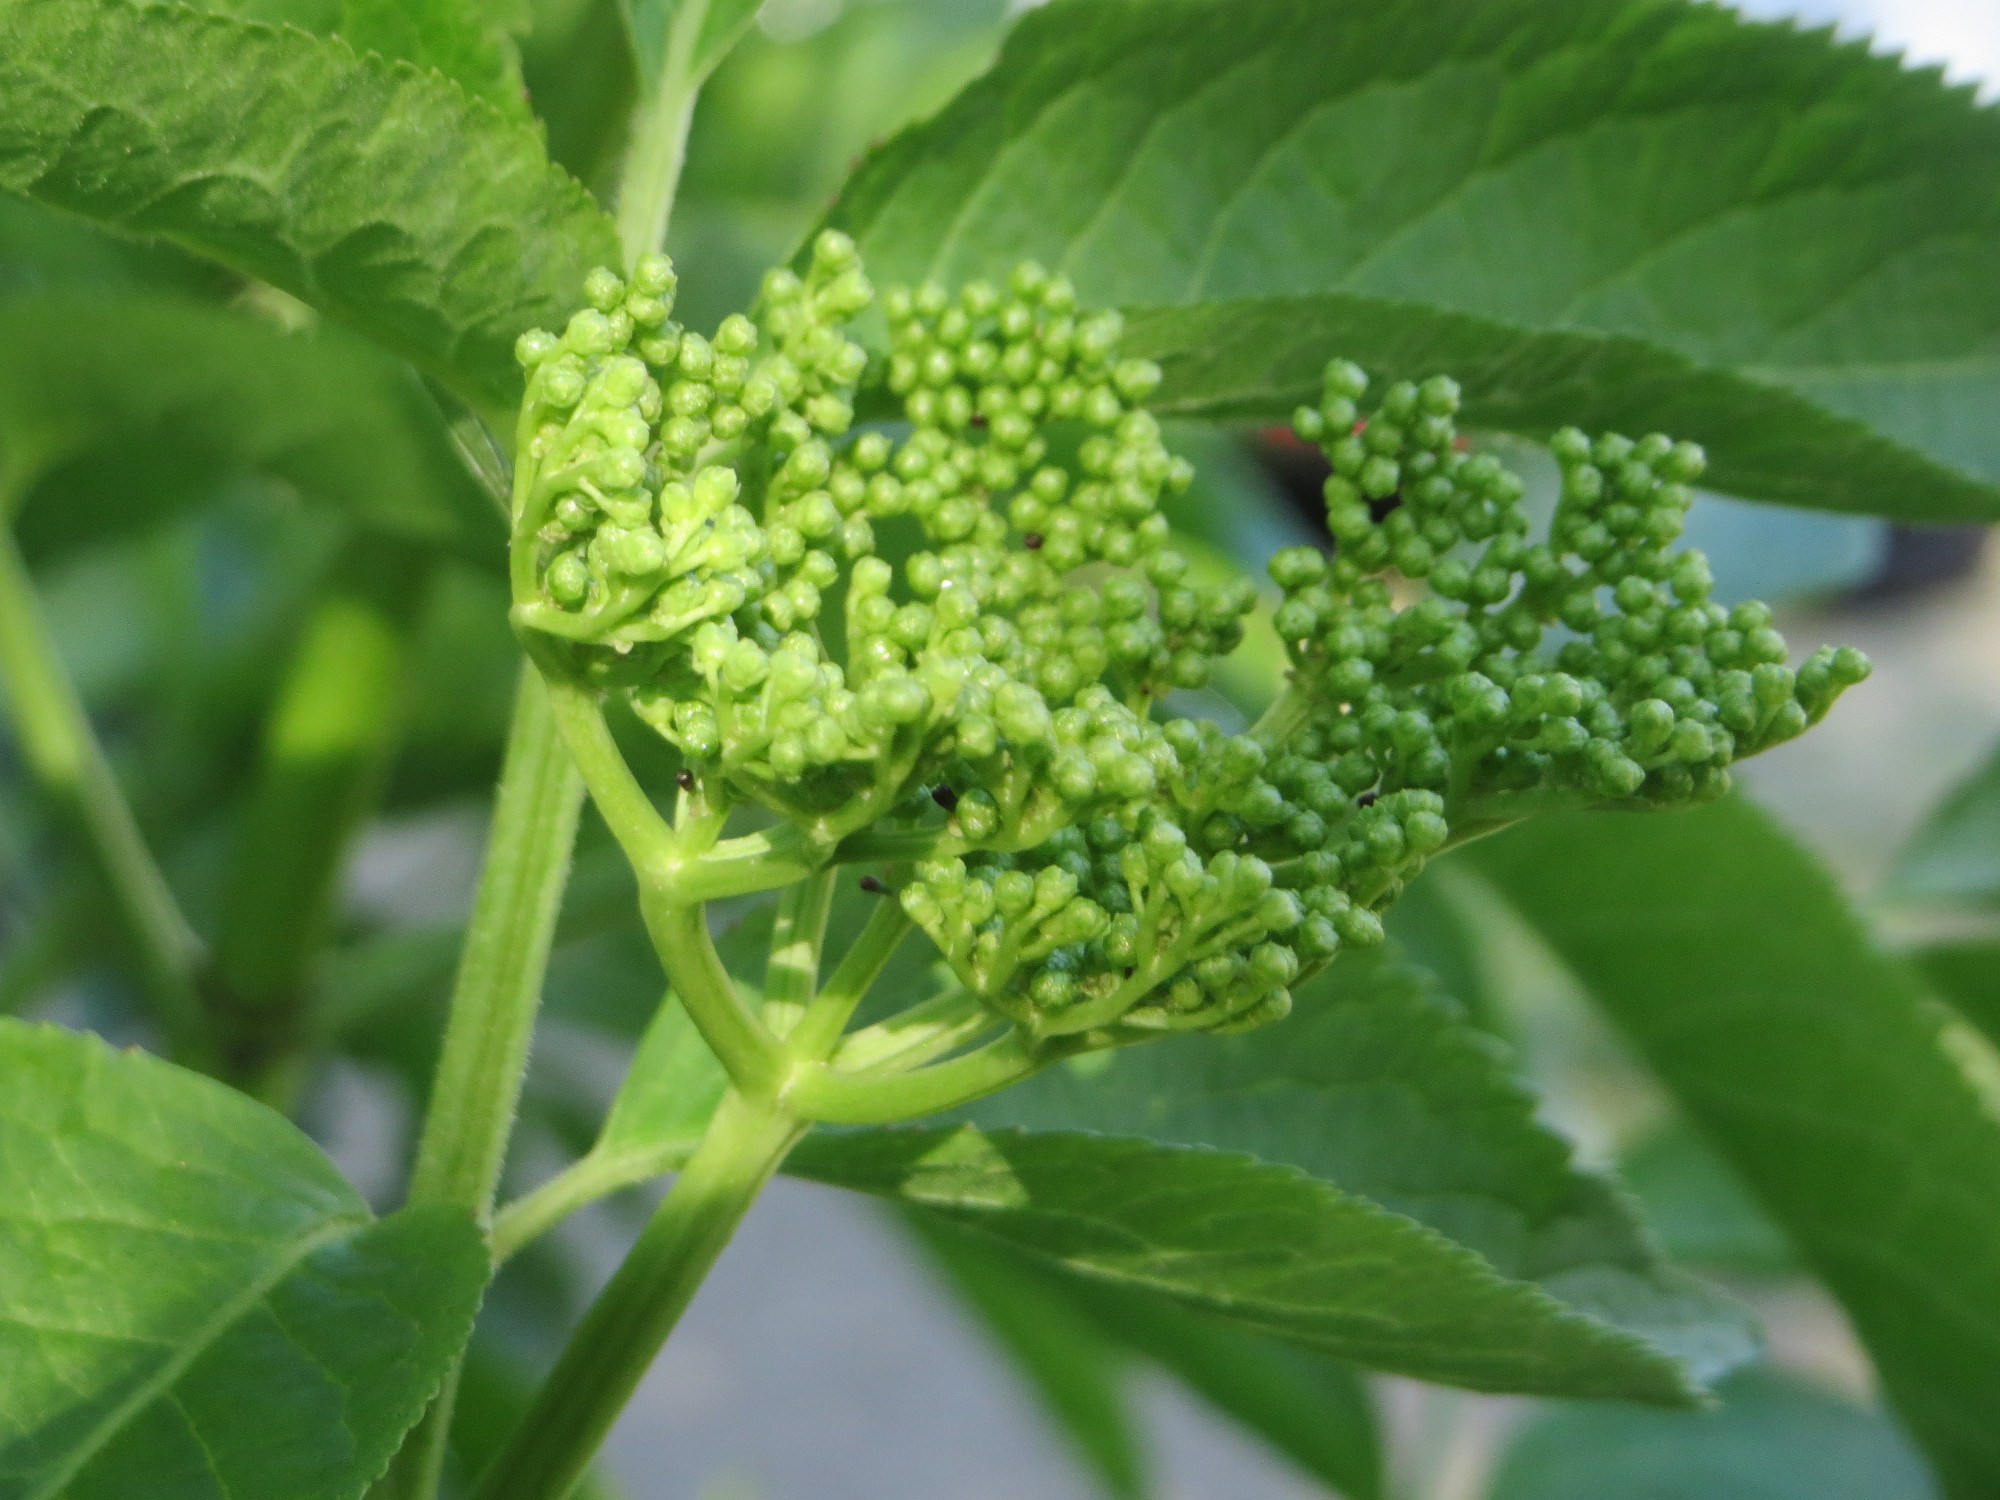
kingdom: Plantae
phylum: Tracheophyta
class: Magnoliopsida
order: Dipsacales
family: Viburnaceae
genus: Sambucus
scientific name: Sambucus nigra
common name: Elder
